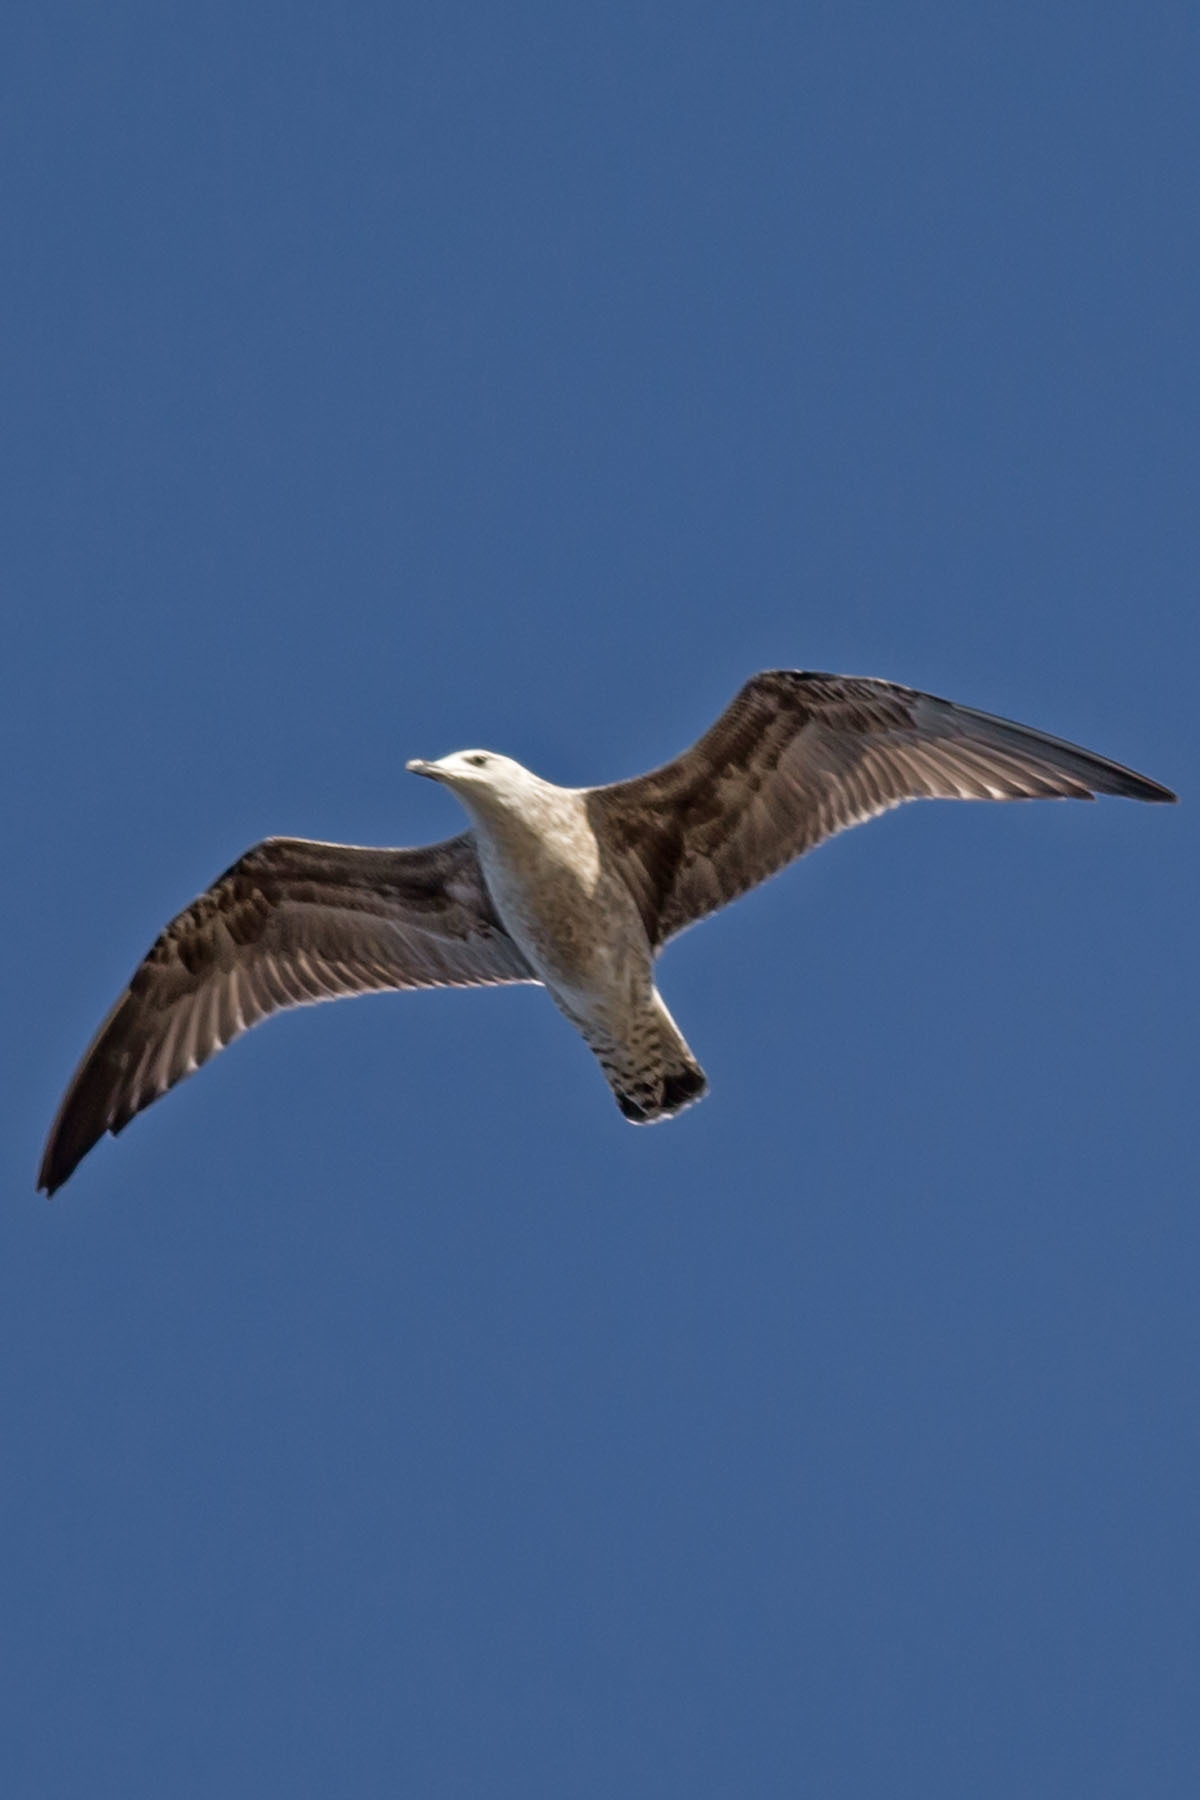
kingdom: Animalia
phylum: Chordata
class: Aves
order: Charadriiformes
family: Laridae
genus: Larus
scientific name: Larus fuscus
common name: Lesser black-backed gull
